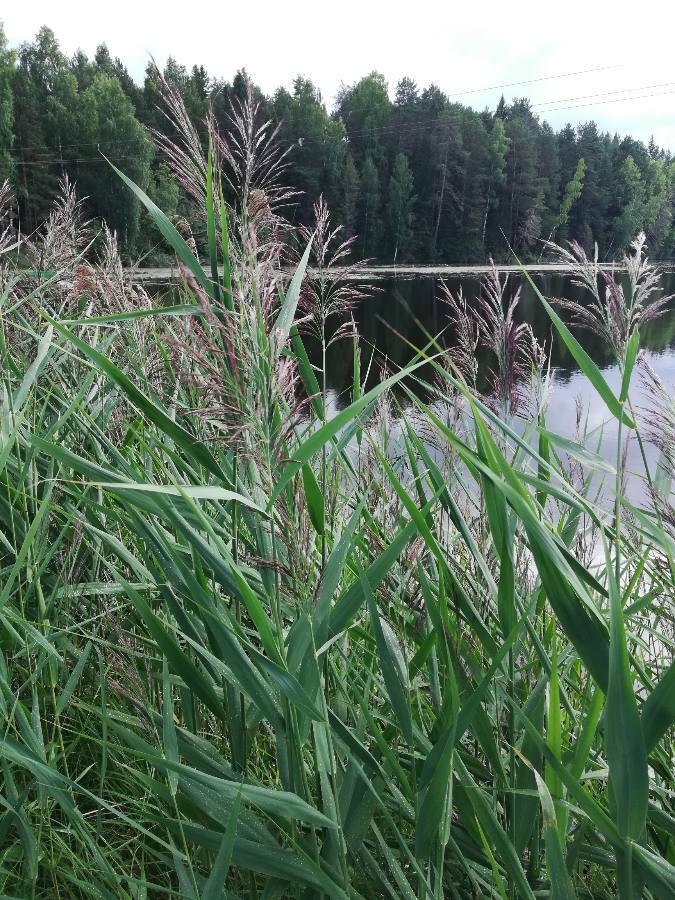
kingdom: Plantae
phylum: Tracheophyta
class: Liliopsida
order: Poales
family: Poaceae
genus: Phragmites
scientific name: Phragmites australis
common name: Common reed
